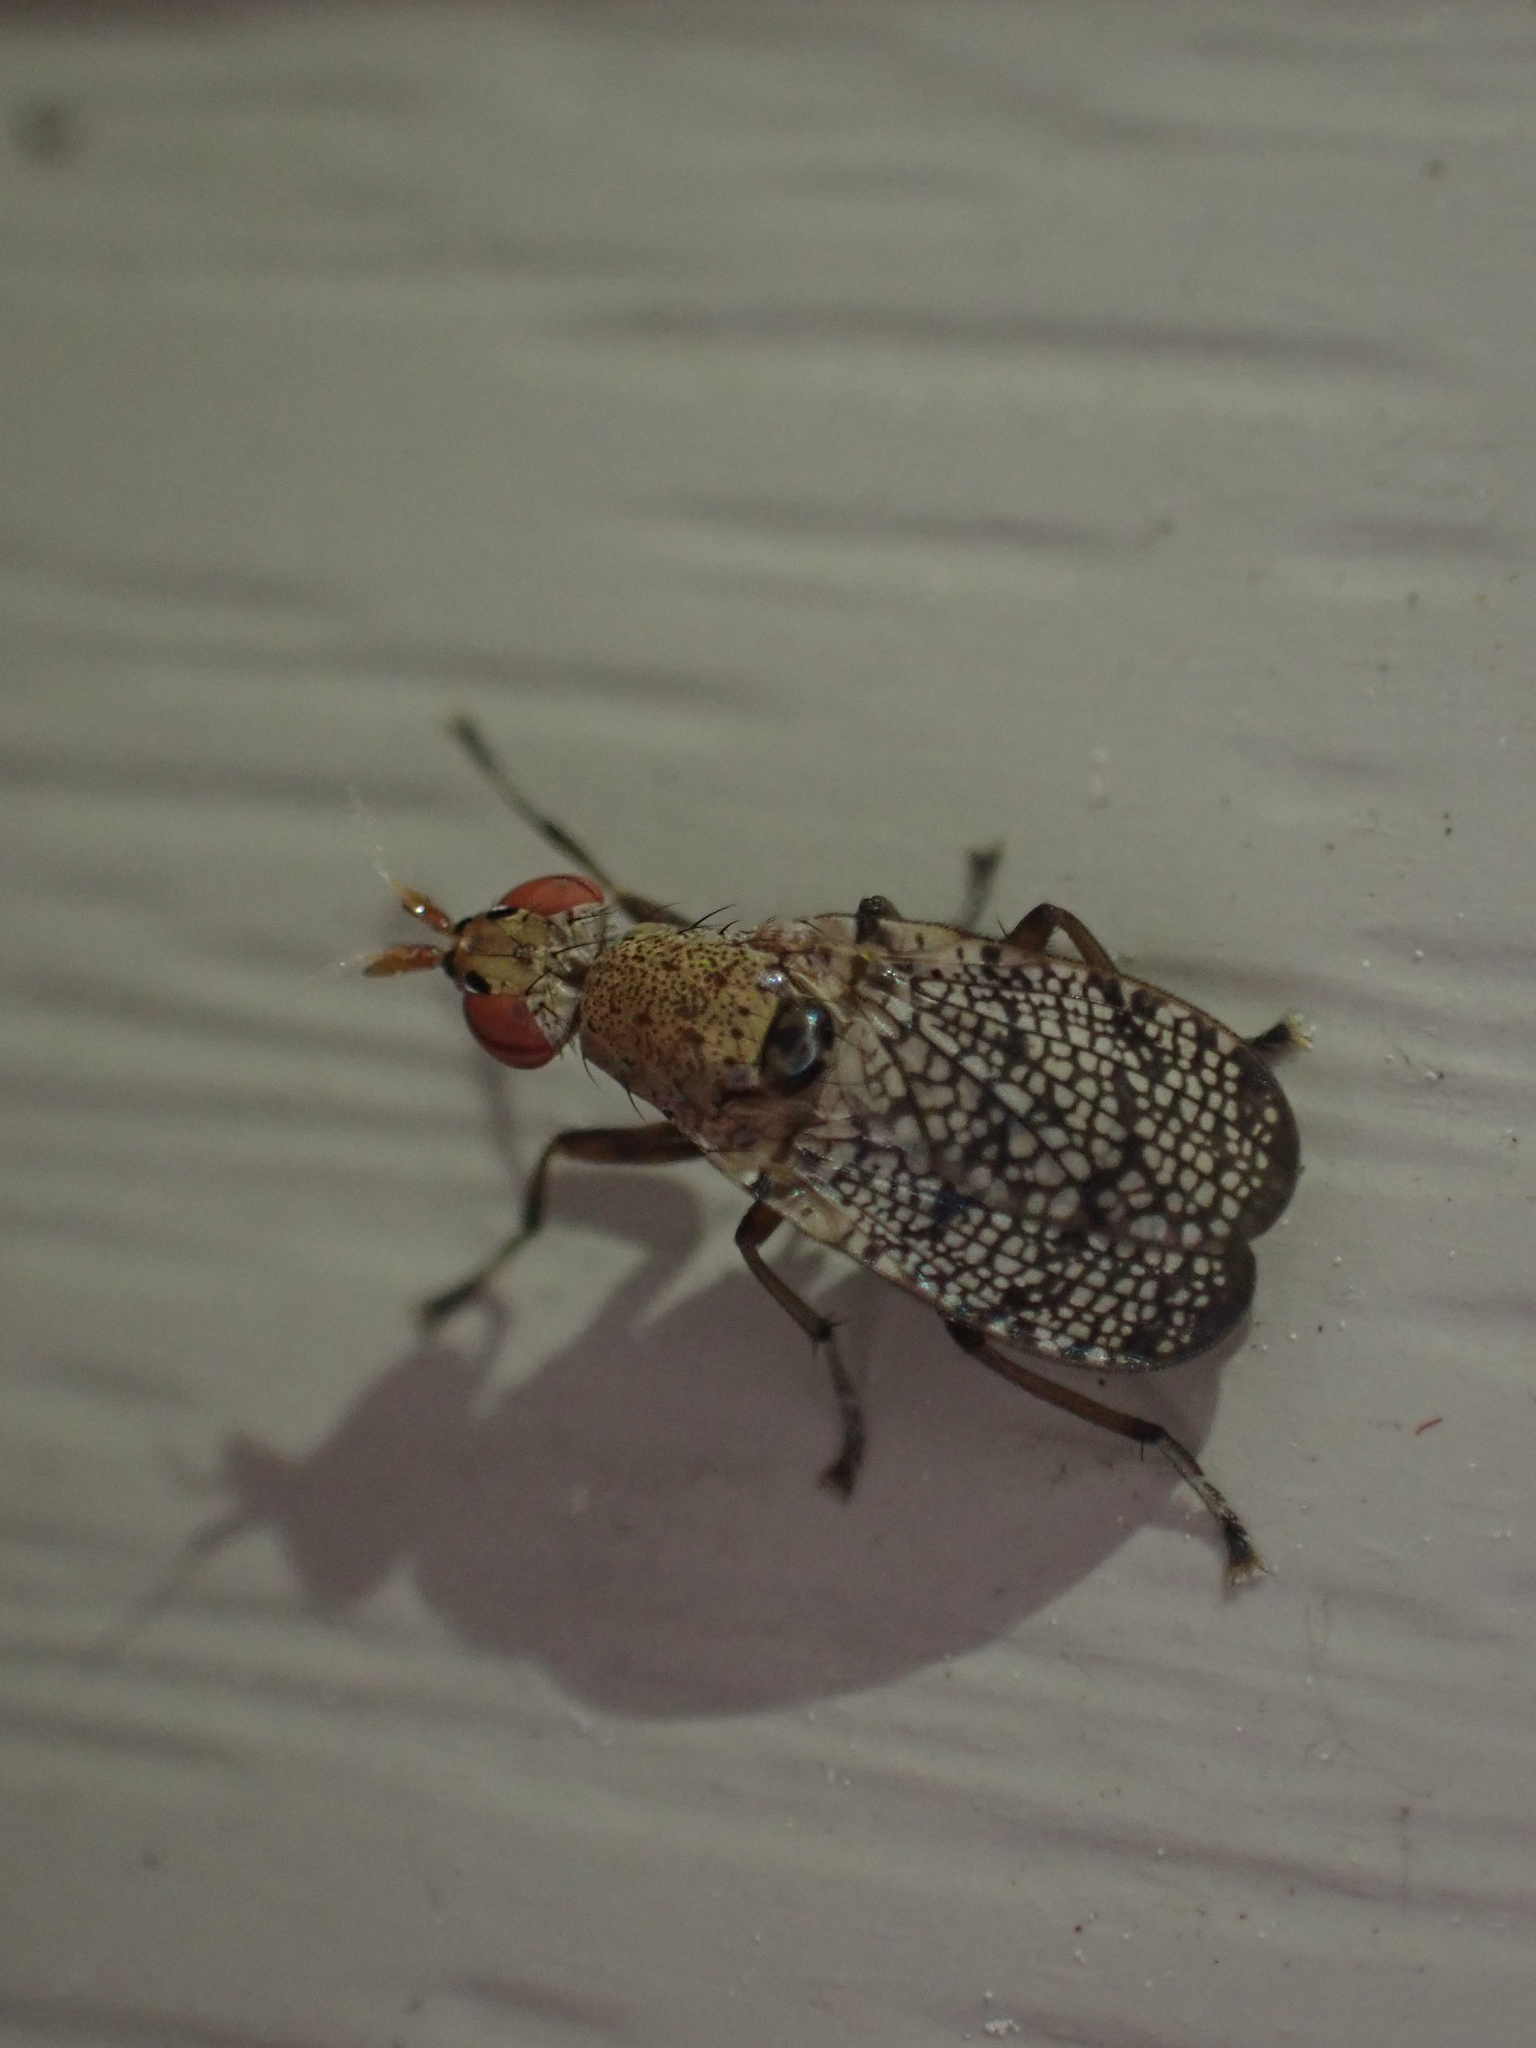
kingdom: Animalia
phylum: Arthropoda
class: Insecta
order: Diptera
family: Sciomyzidae
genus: Euthycera
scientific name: Euthycera flavescens
